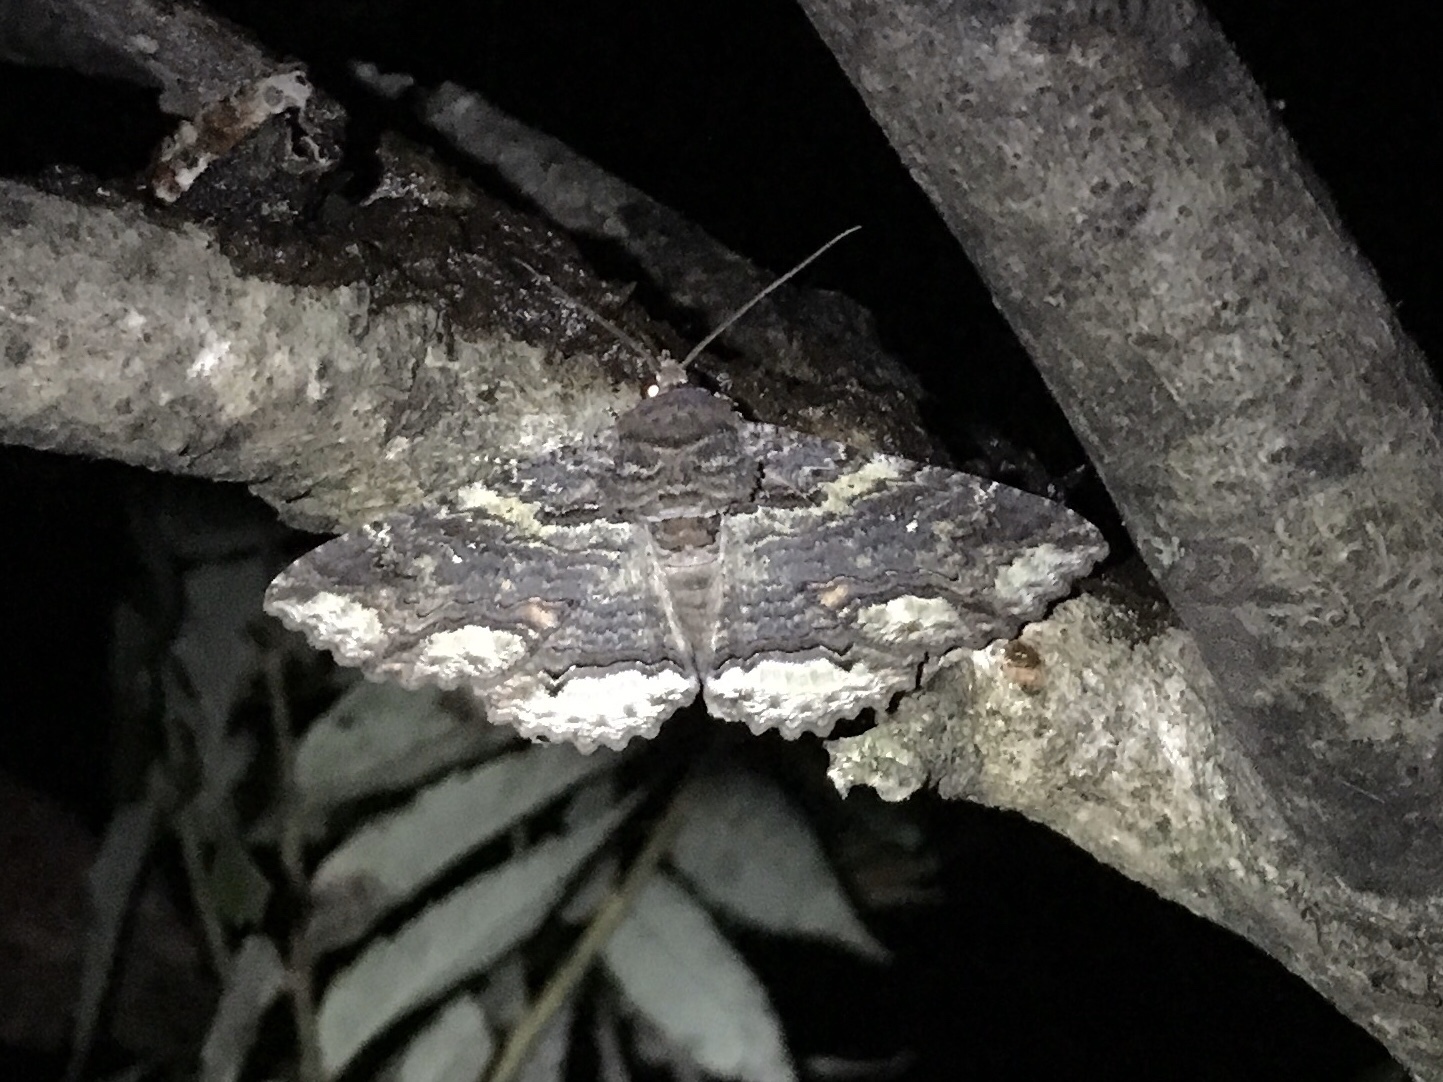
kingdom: Animalia
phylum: Arthropoda
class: Insecta
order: Lepidoptera
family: Erebidae
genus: Zale
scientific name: Zale lunata
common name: Lunate zale moth
